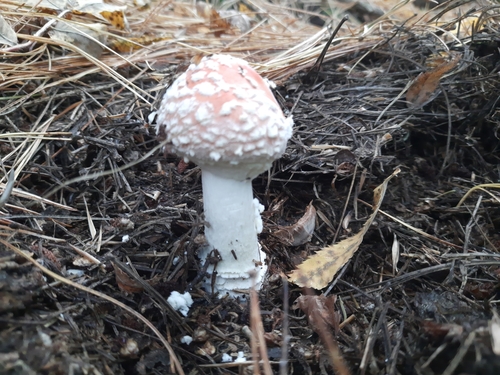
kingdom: Fungi
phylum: Basidiomycota
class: Agaricomycetes
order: Agaricales
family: Amanitaceae
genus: Amanita
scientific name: Amanita muscaria
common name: Fly agaric
